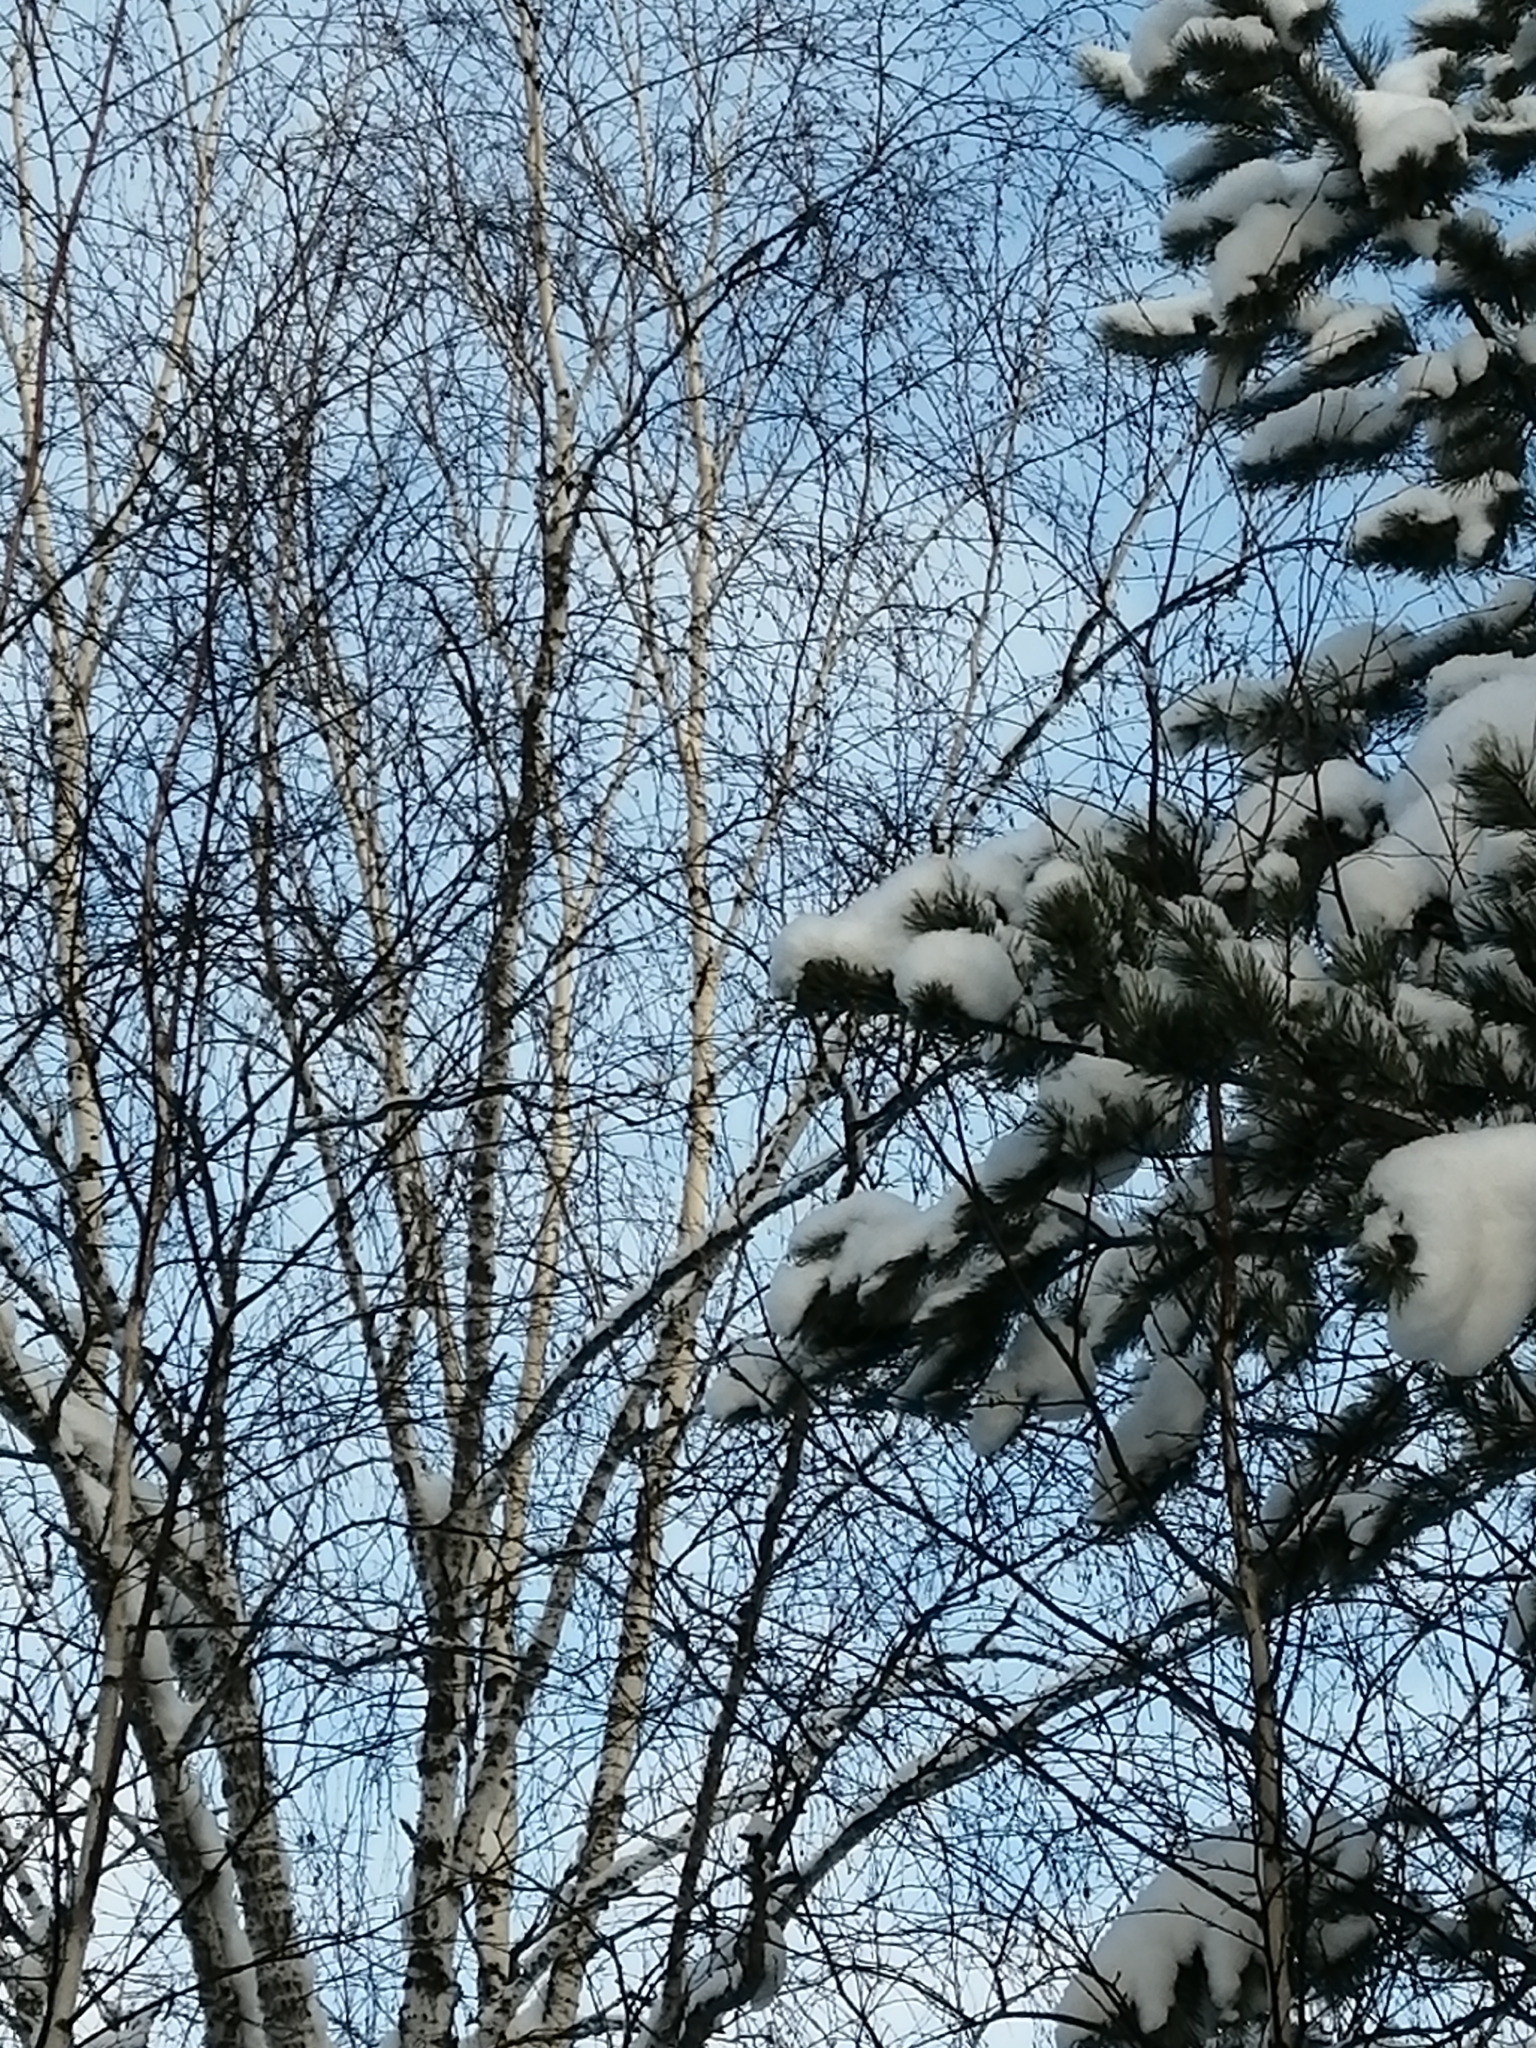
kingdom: Animalia
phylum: Chordata
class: Aves
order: Passeriformes
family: Corvidae
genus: Pica
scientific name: Pica pica
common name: Eurasian magpie
